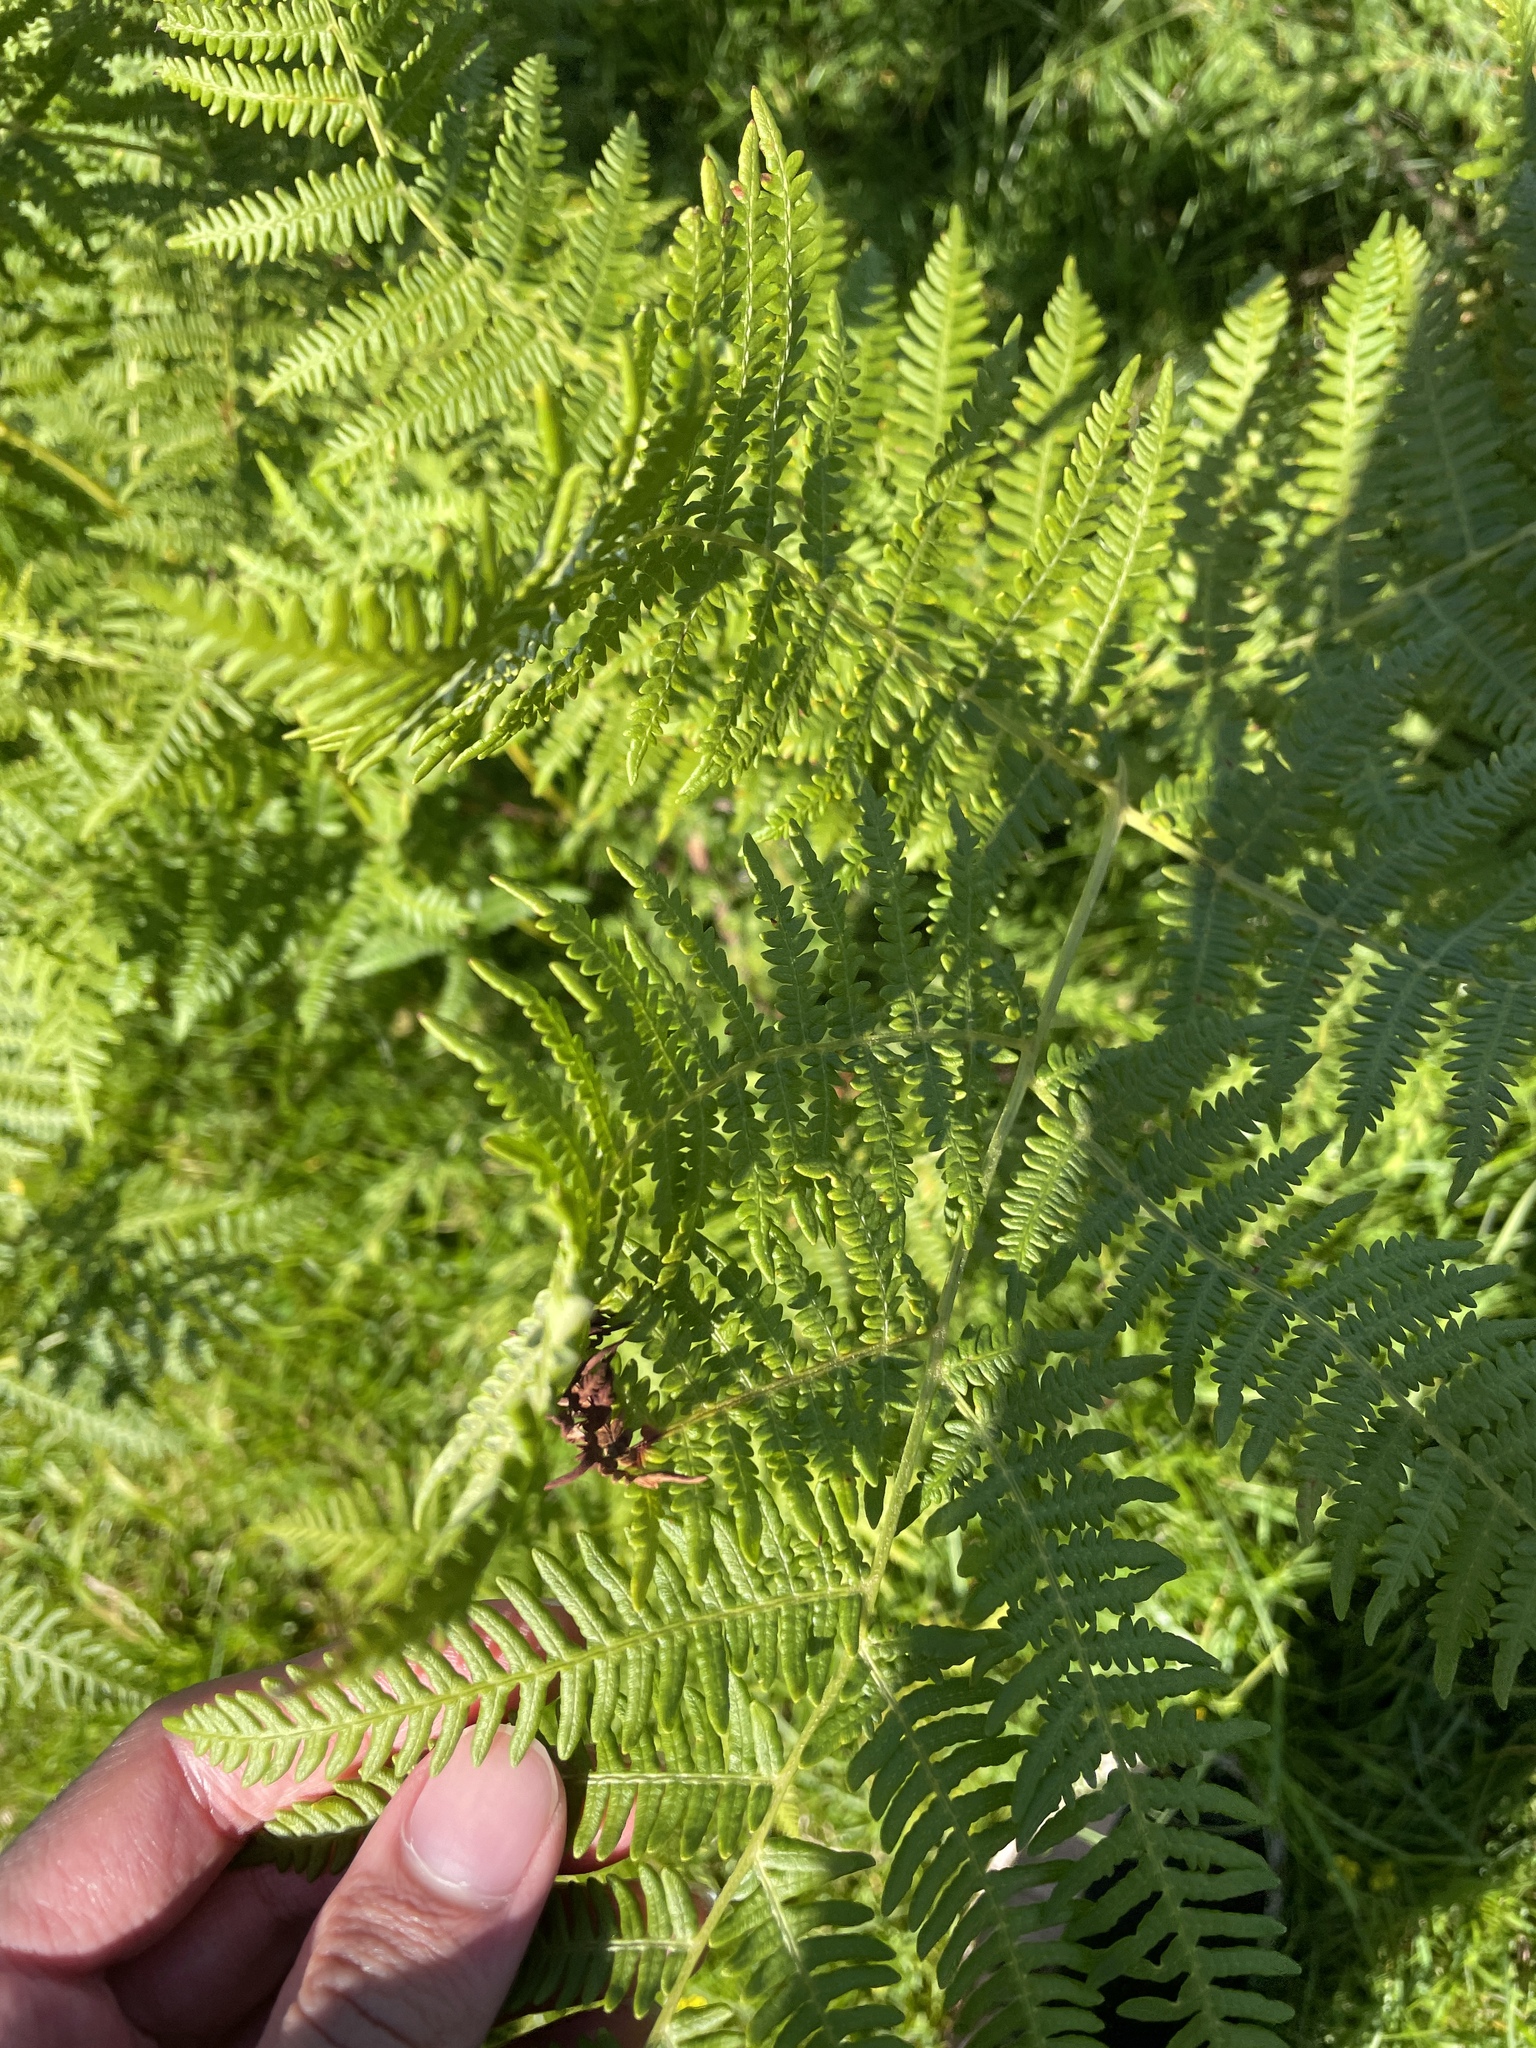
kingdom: Plantae
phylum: Tracheophyta
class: Polypodiopsida
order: Polypodiales
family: Dennstaedtiaceae
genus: Pteridium
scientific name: Pteridium aquilinum
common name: Bracken
